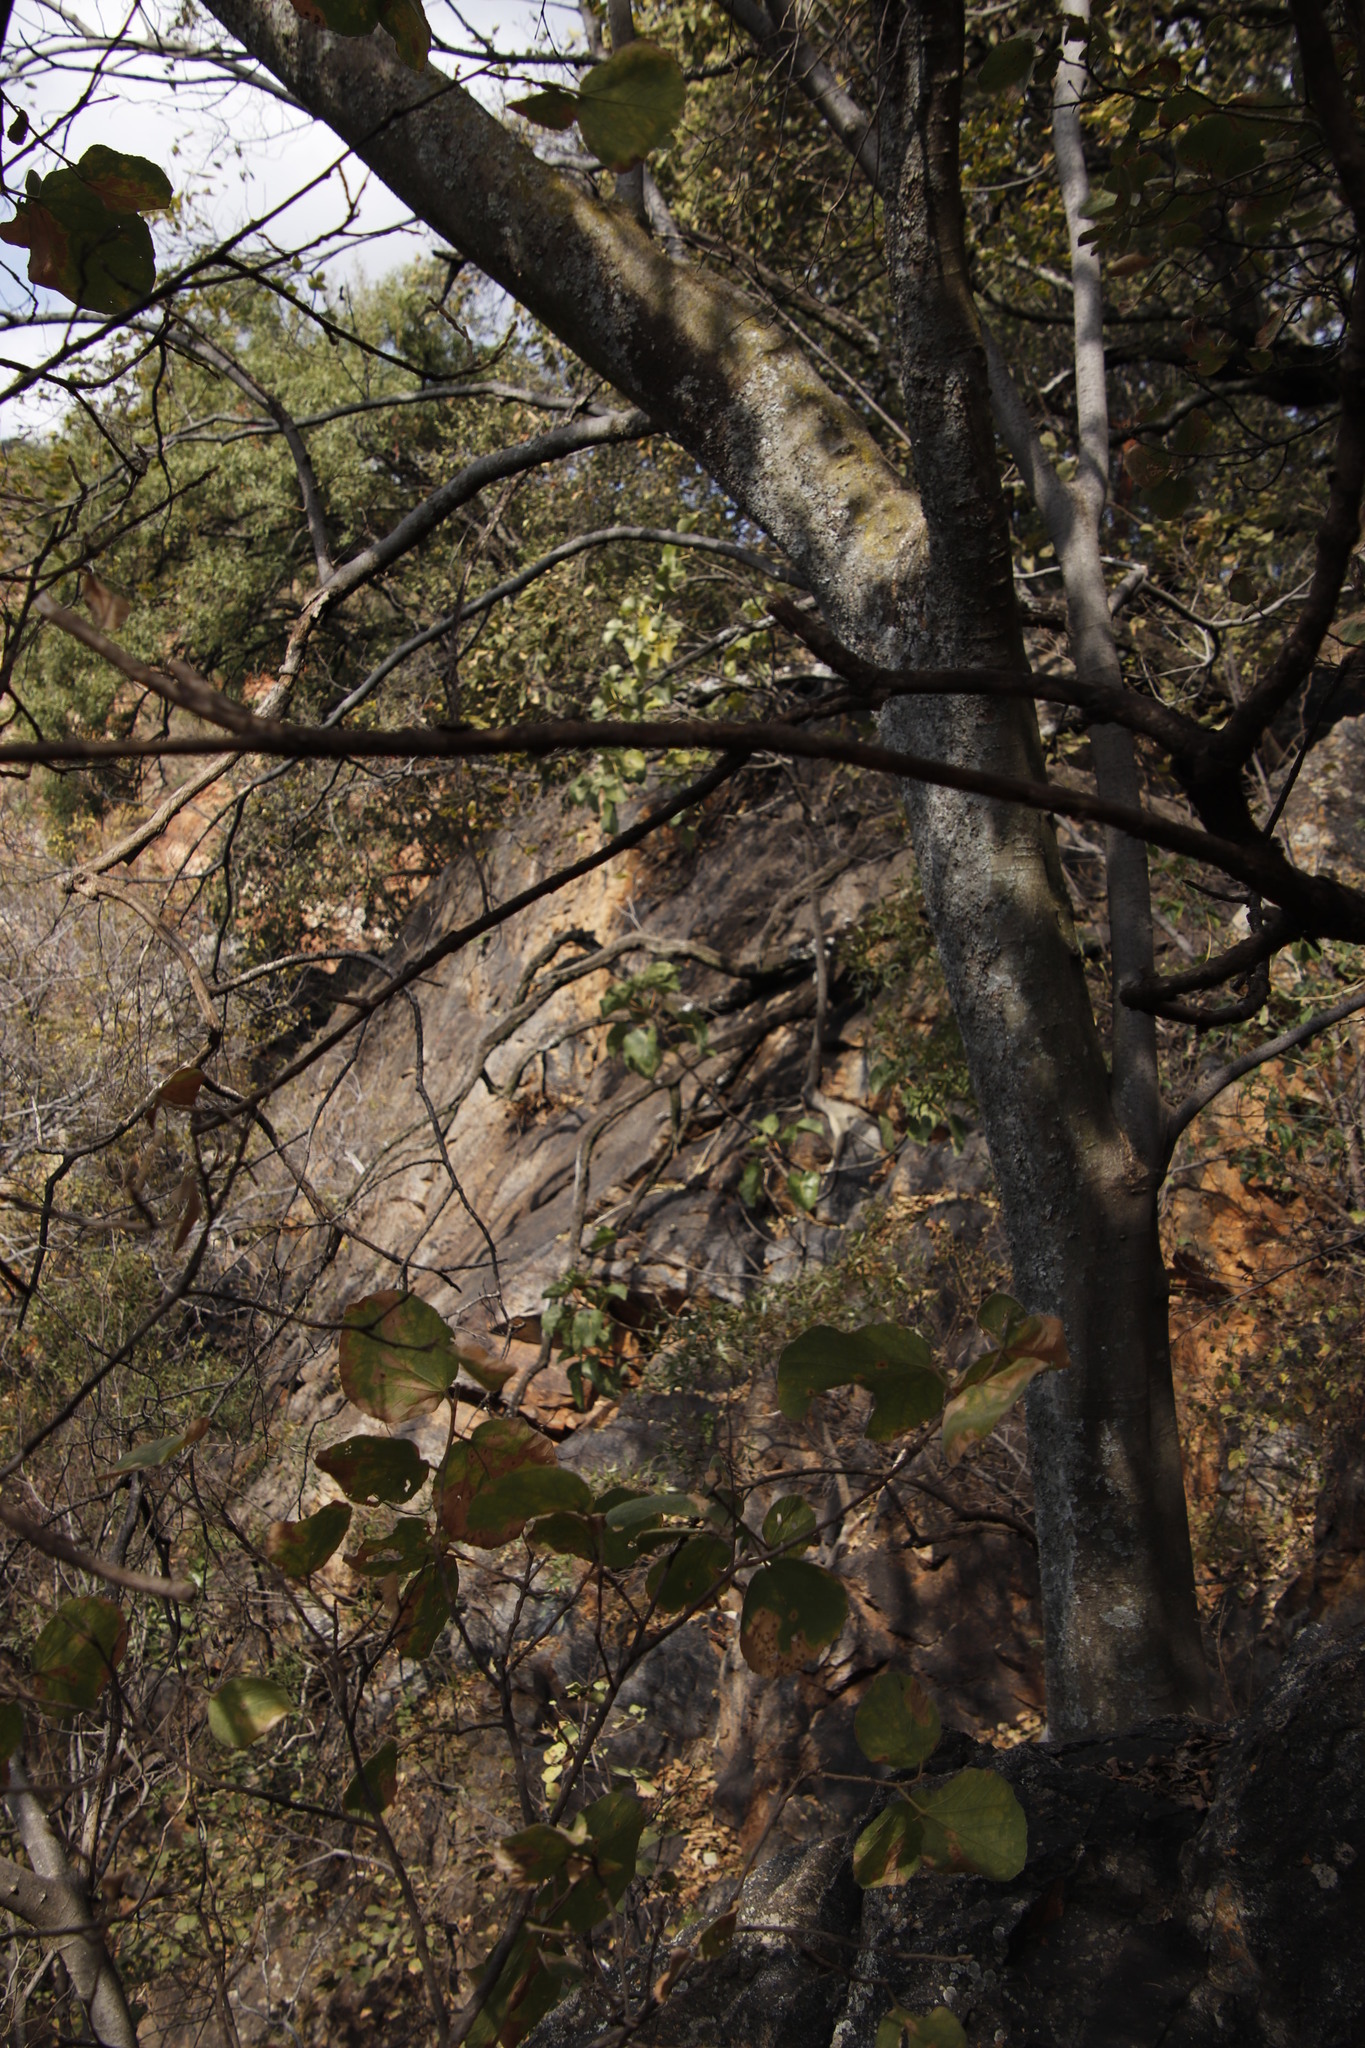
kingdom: Plantae
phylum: Tracheophyta
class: Magnoliopsida
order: Rosales
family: Moraceae
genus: Ficus
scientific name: Ficus abutilifolia
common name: Large-leaved rock fig
